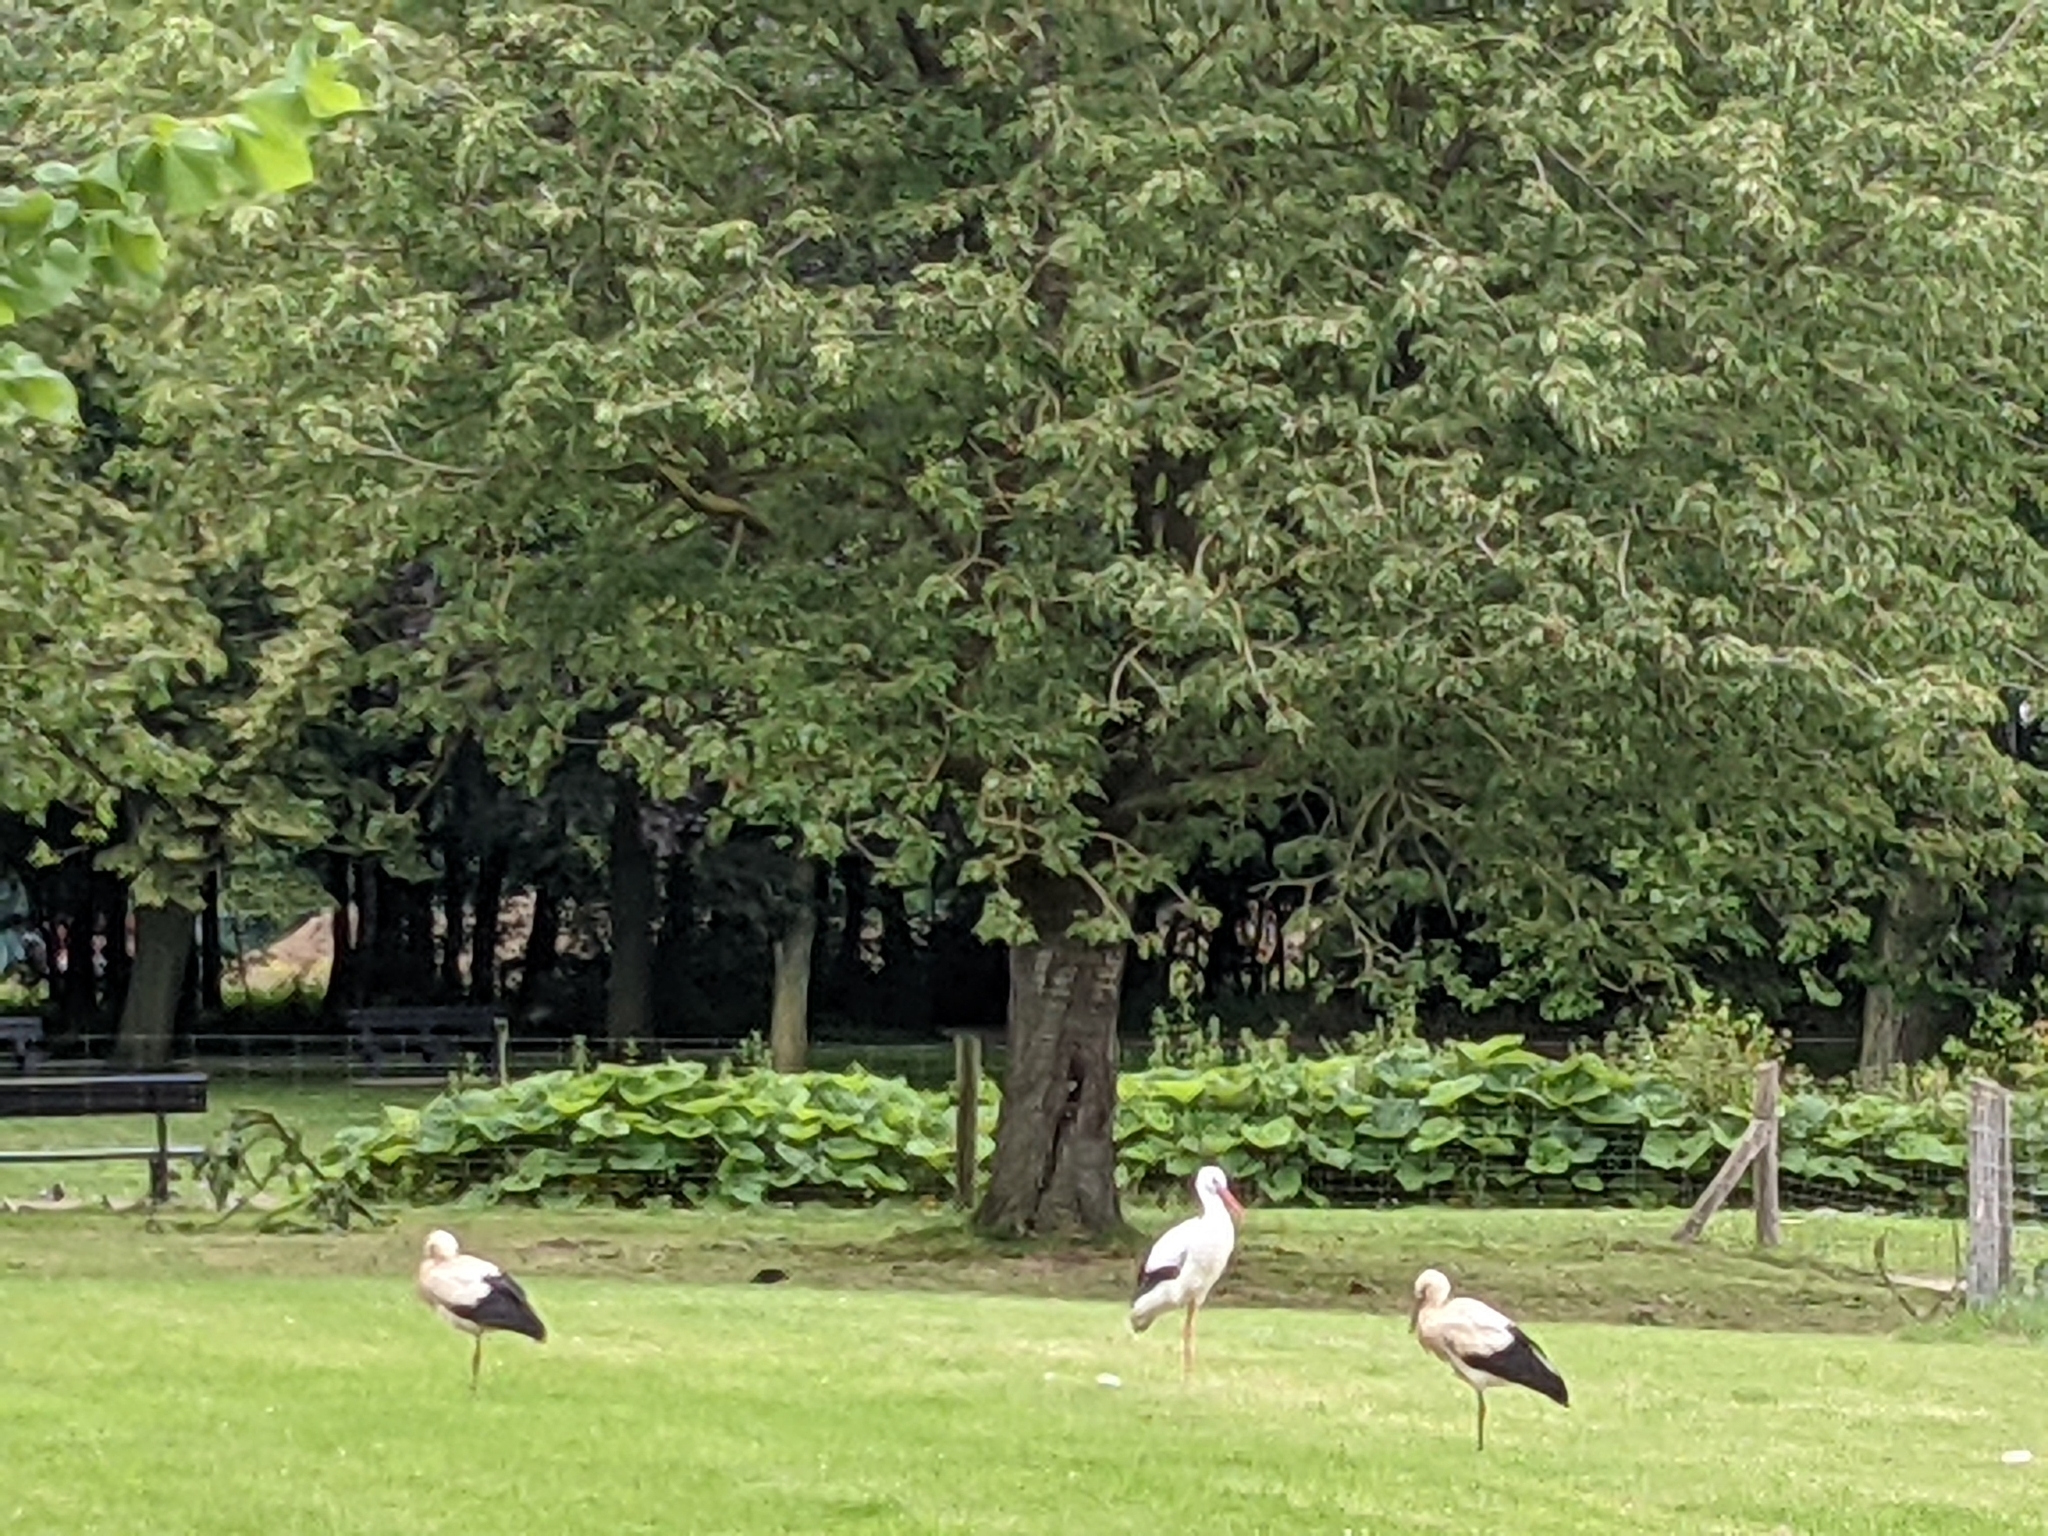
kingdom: Animalia
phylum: Chordata
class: Aves
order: Ciconiiformes
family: Ciconiidae
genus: Ciconia
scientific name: Ciconia ciconia
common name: White stork
